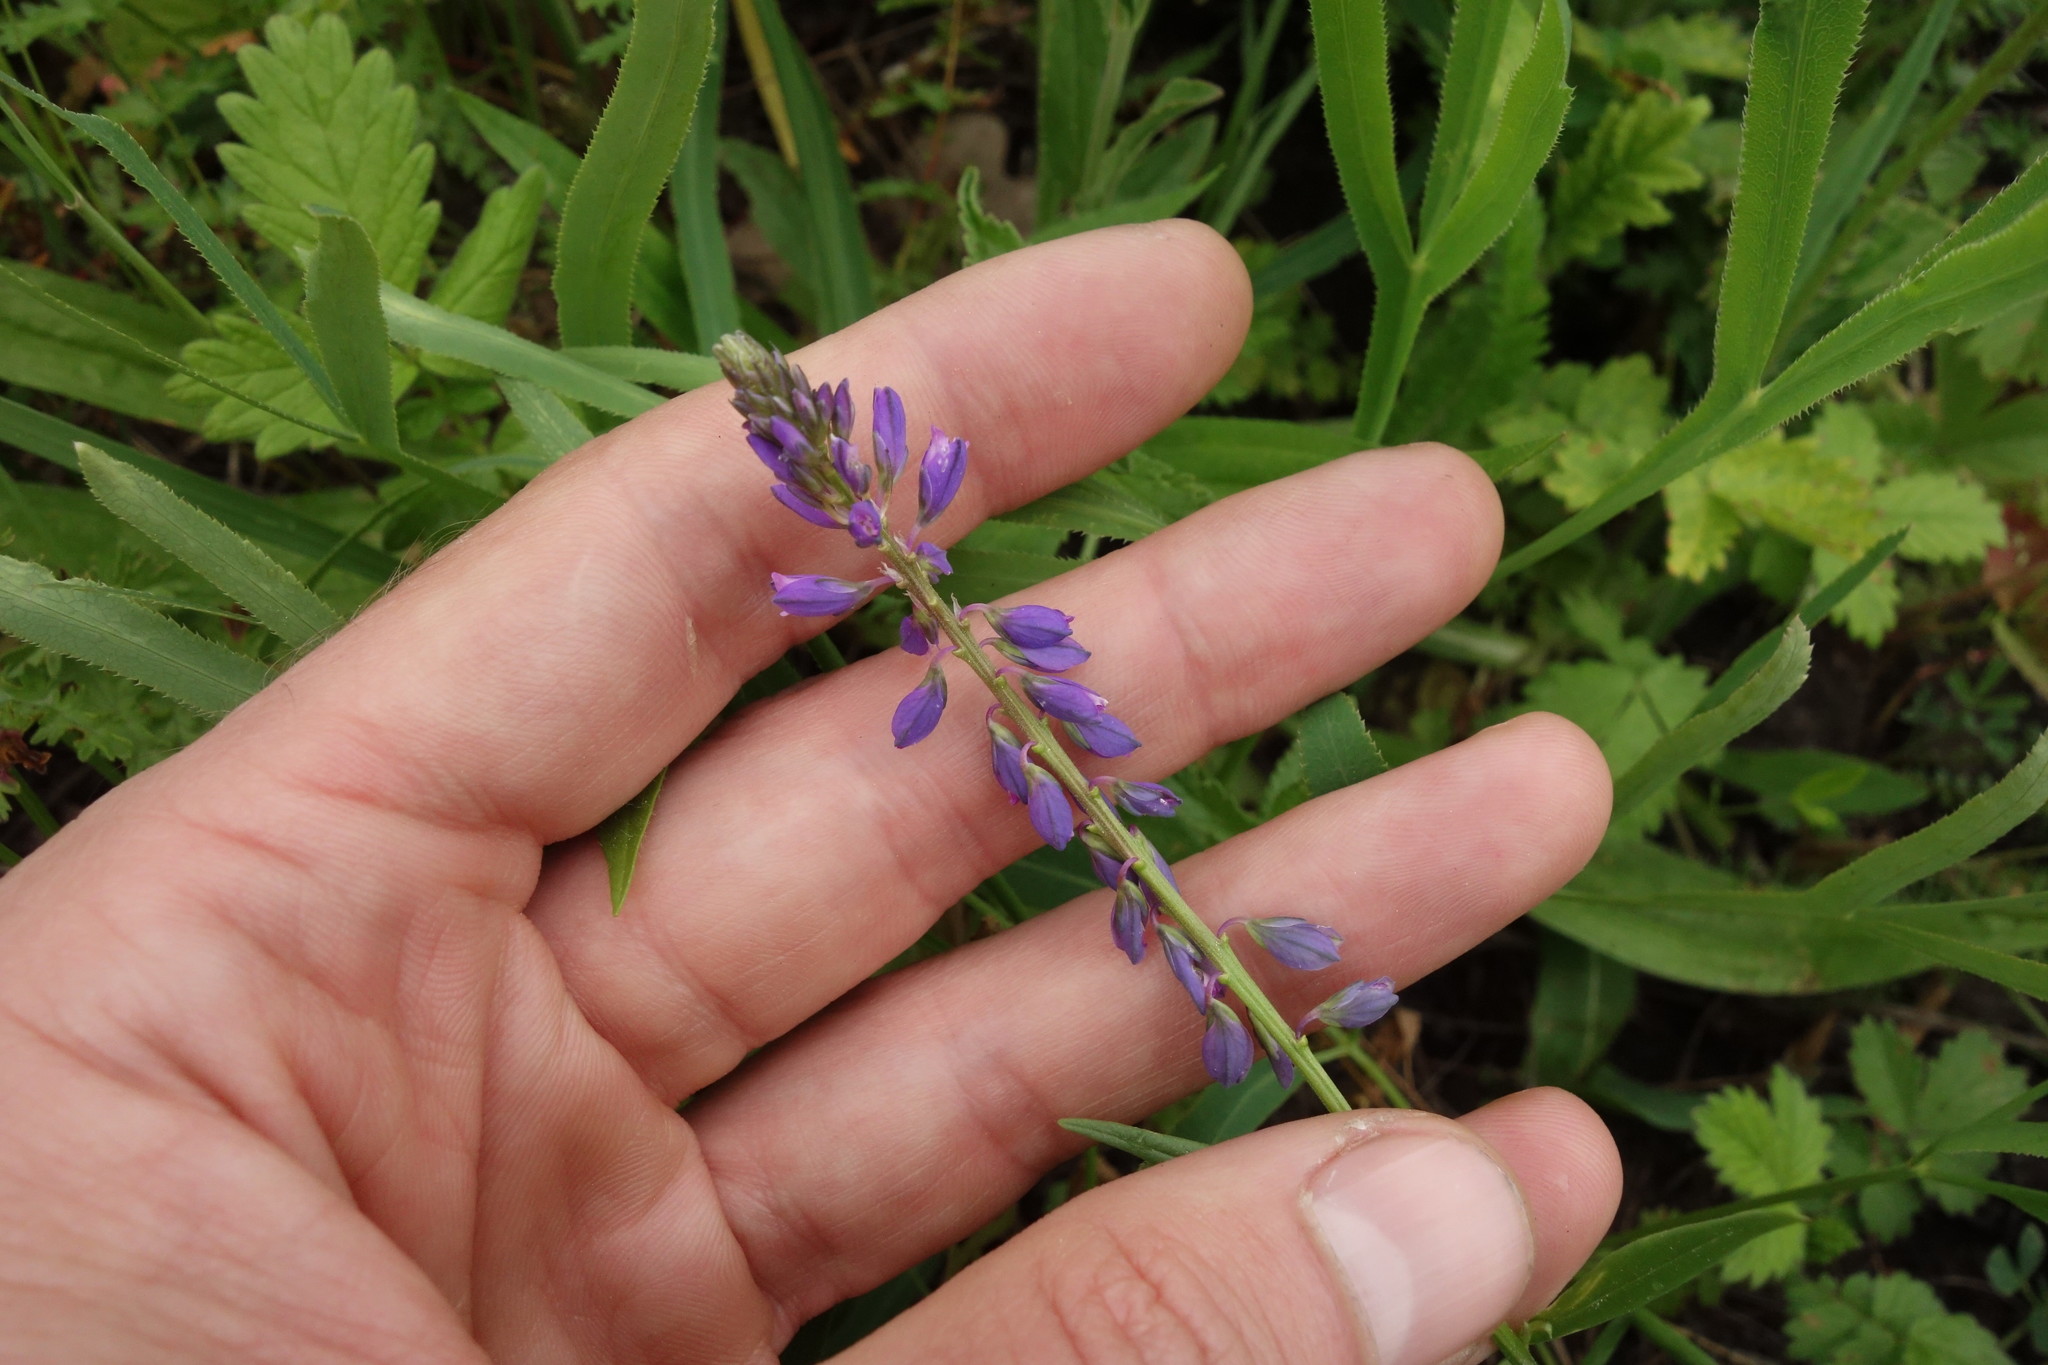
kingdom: Plantae
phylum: Tracheophyta
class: Magnoliopsida
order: Fabales
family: Polygalaceae
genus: Polygala
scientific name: Polygala comosa
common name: Tufted milkwort
